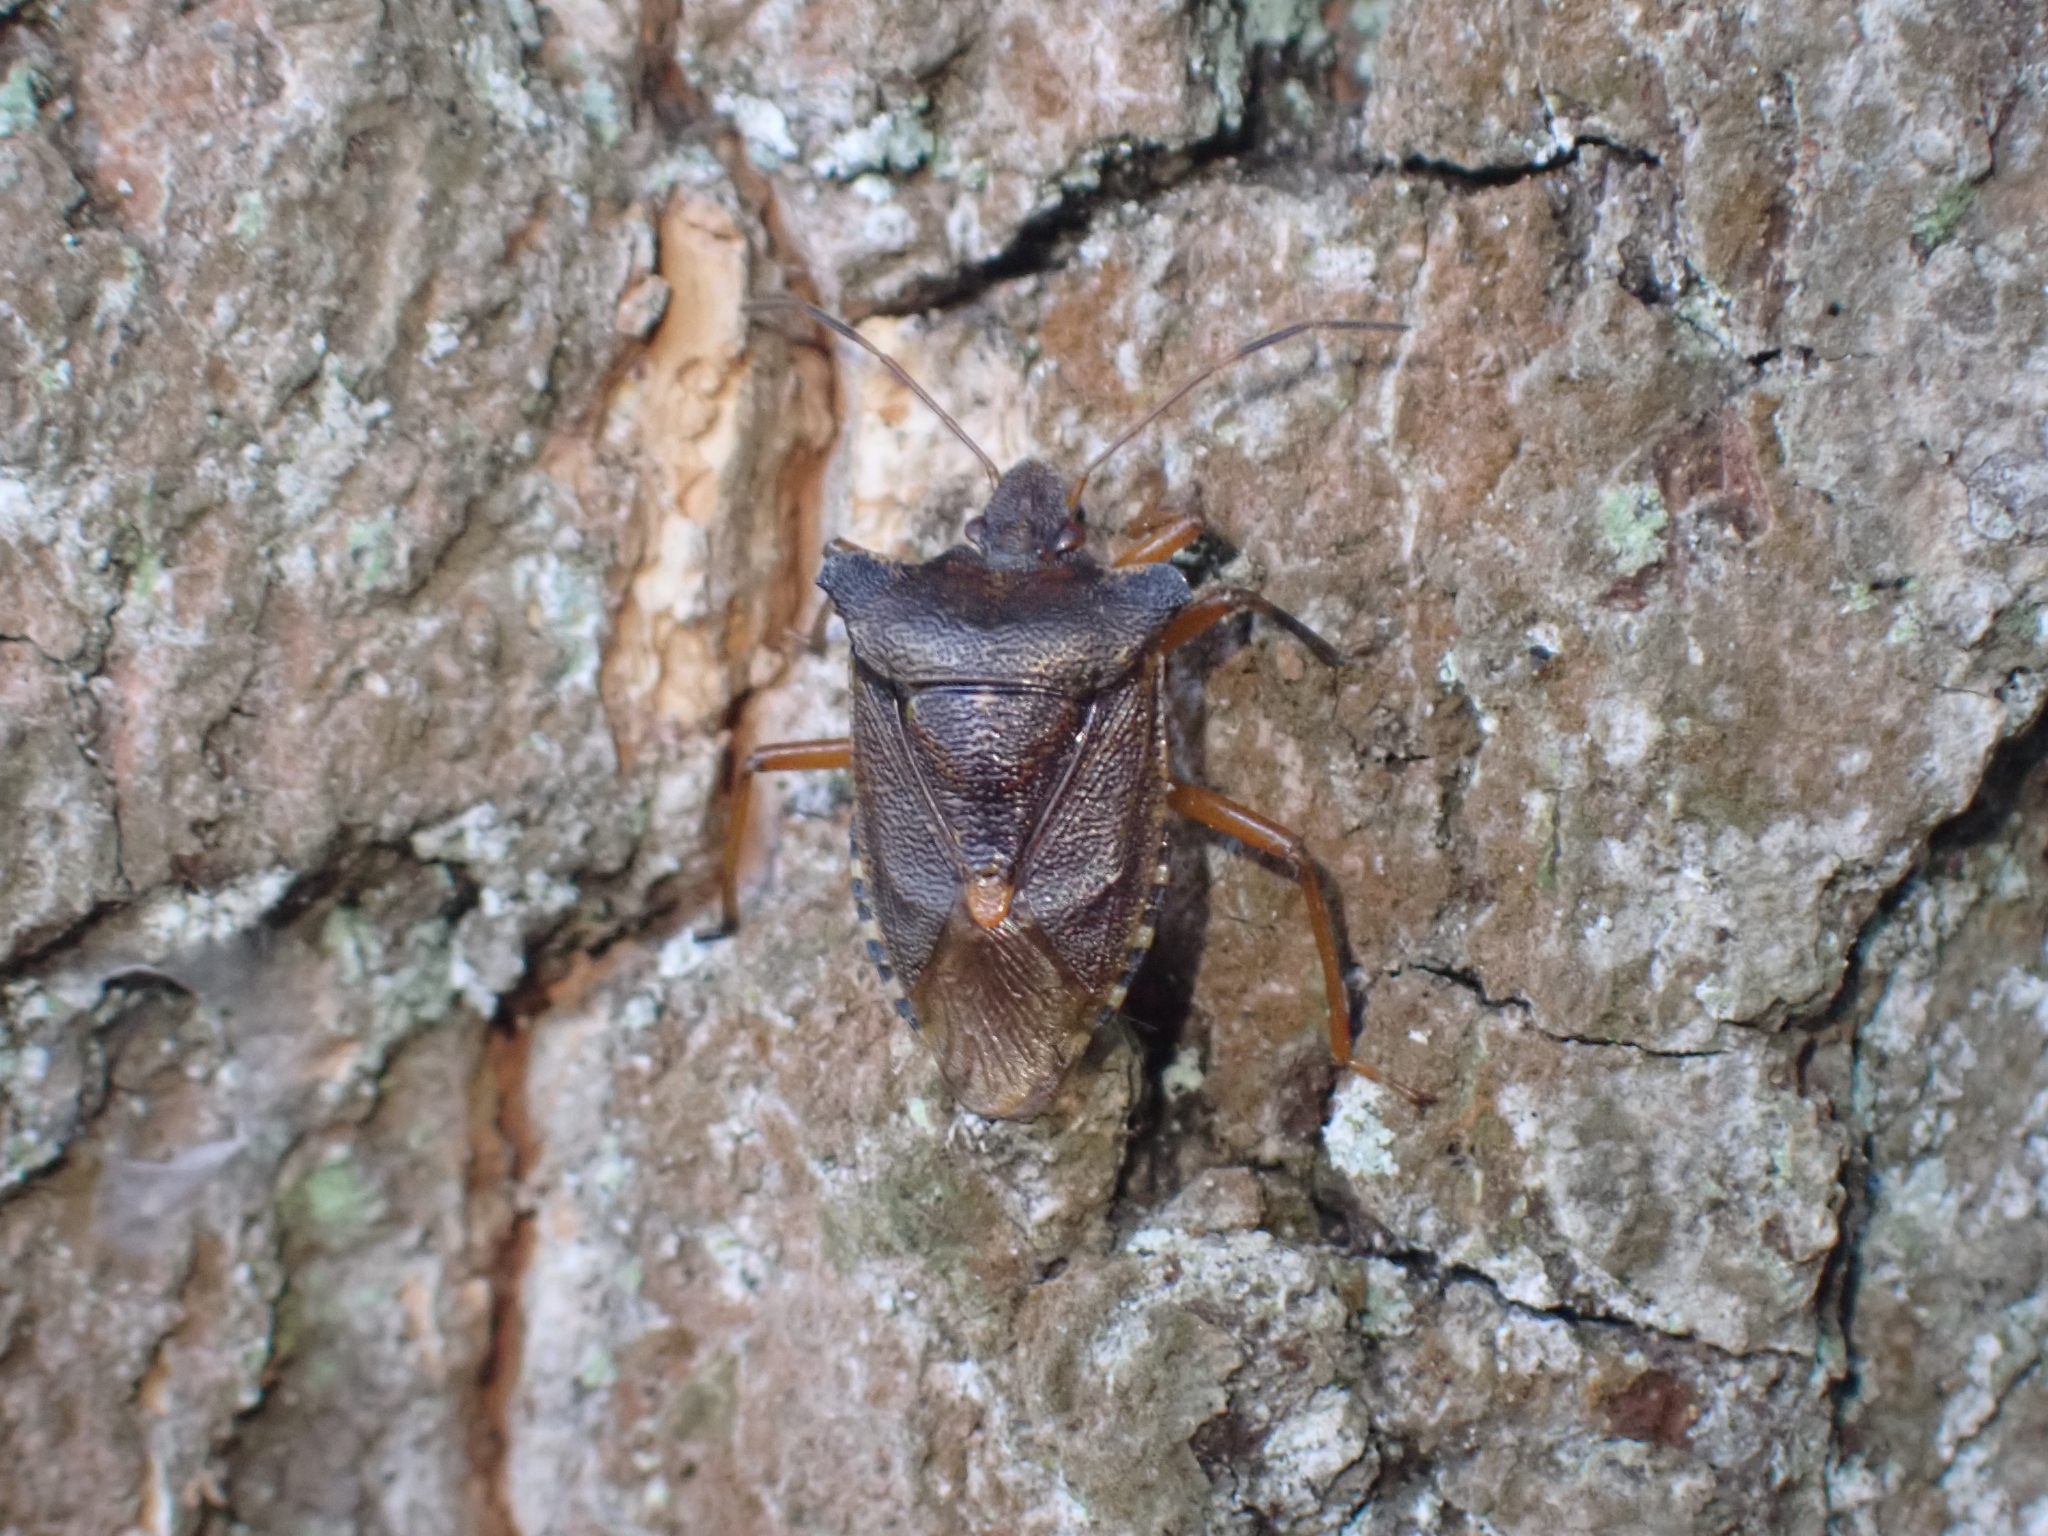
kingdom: Animalia
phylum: Arthropoda
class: Insecta
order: Hemiptera
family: Pentatomidae
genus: Pentatoma
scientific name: Pentatoma rufipes
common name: Forest bug
